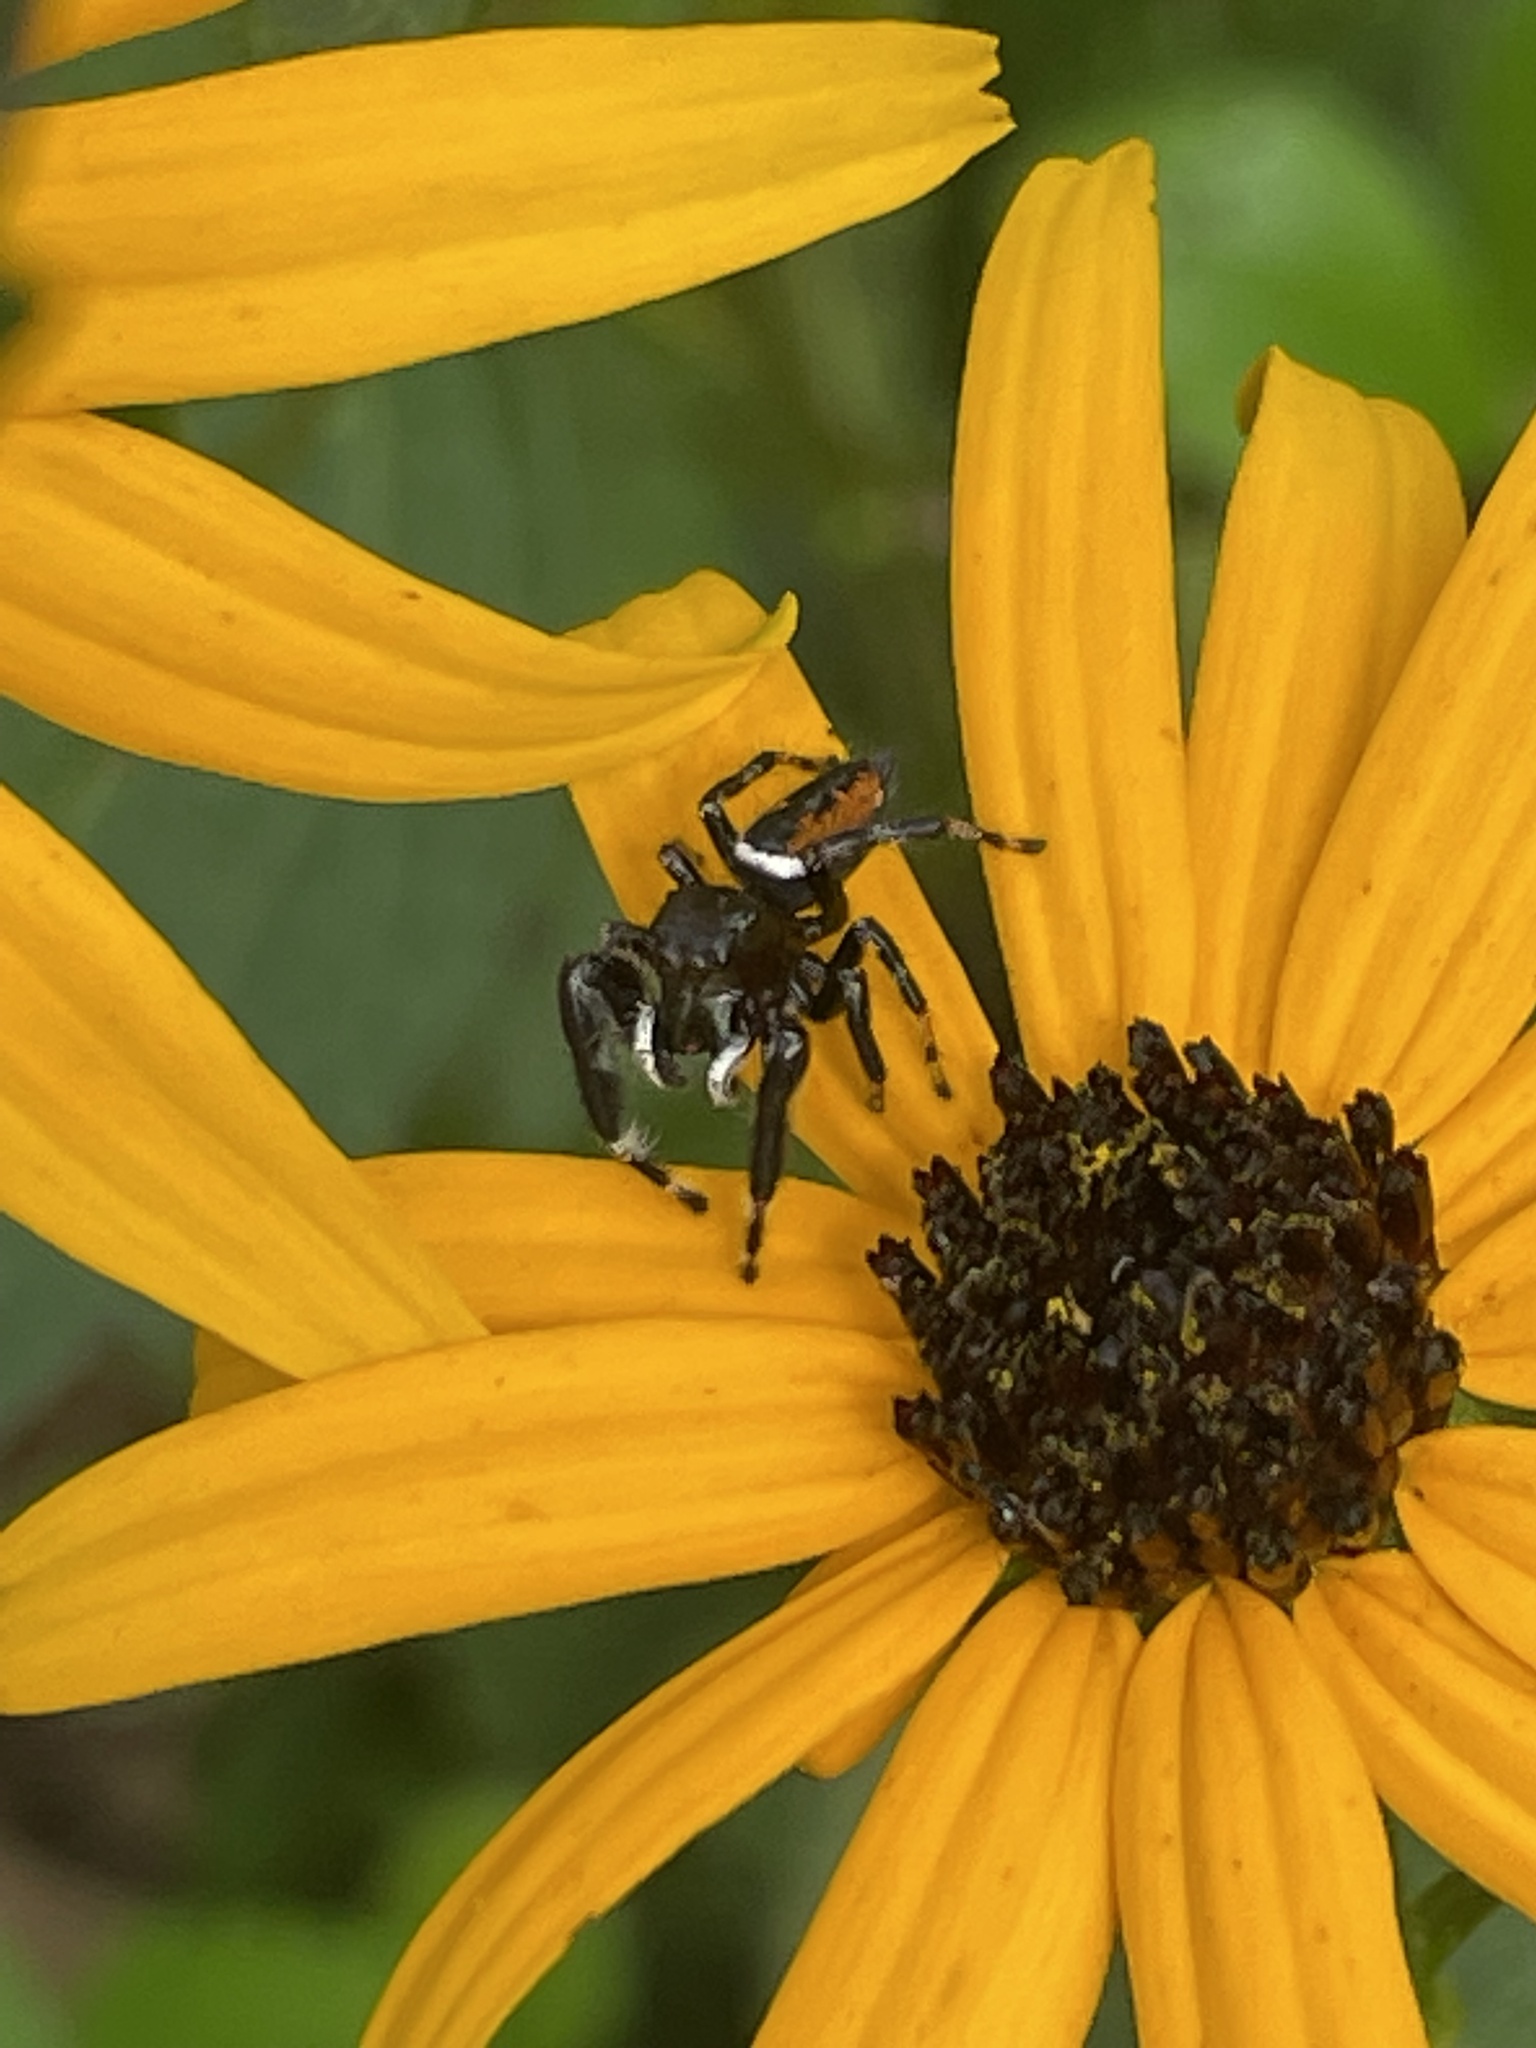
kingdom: Animalia
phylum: Arthropoda
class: Arachnida
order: Araneae
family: Salticidae
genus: Phidippus
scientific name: Phidippus clarus
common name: Brilliant jumping spider
